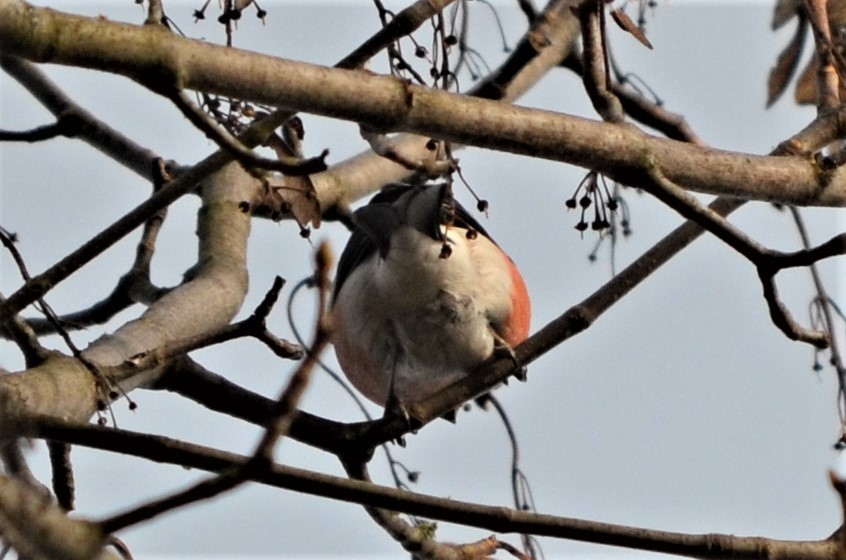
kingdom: Animalia
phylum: Chordata
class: Aves
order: Passeriformes
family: Fringillidae
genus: Pyrrhula
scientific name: Pyrrhula pyrrhula
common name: Eurasian bullfinch
